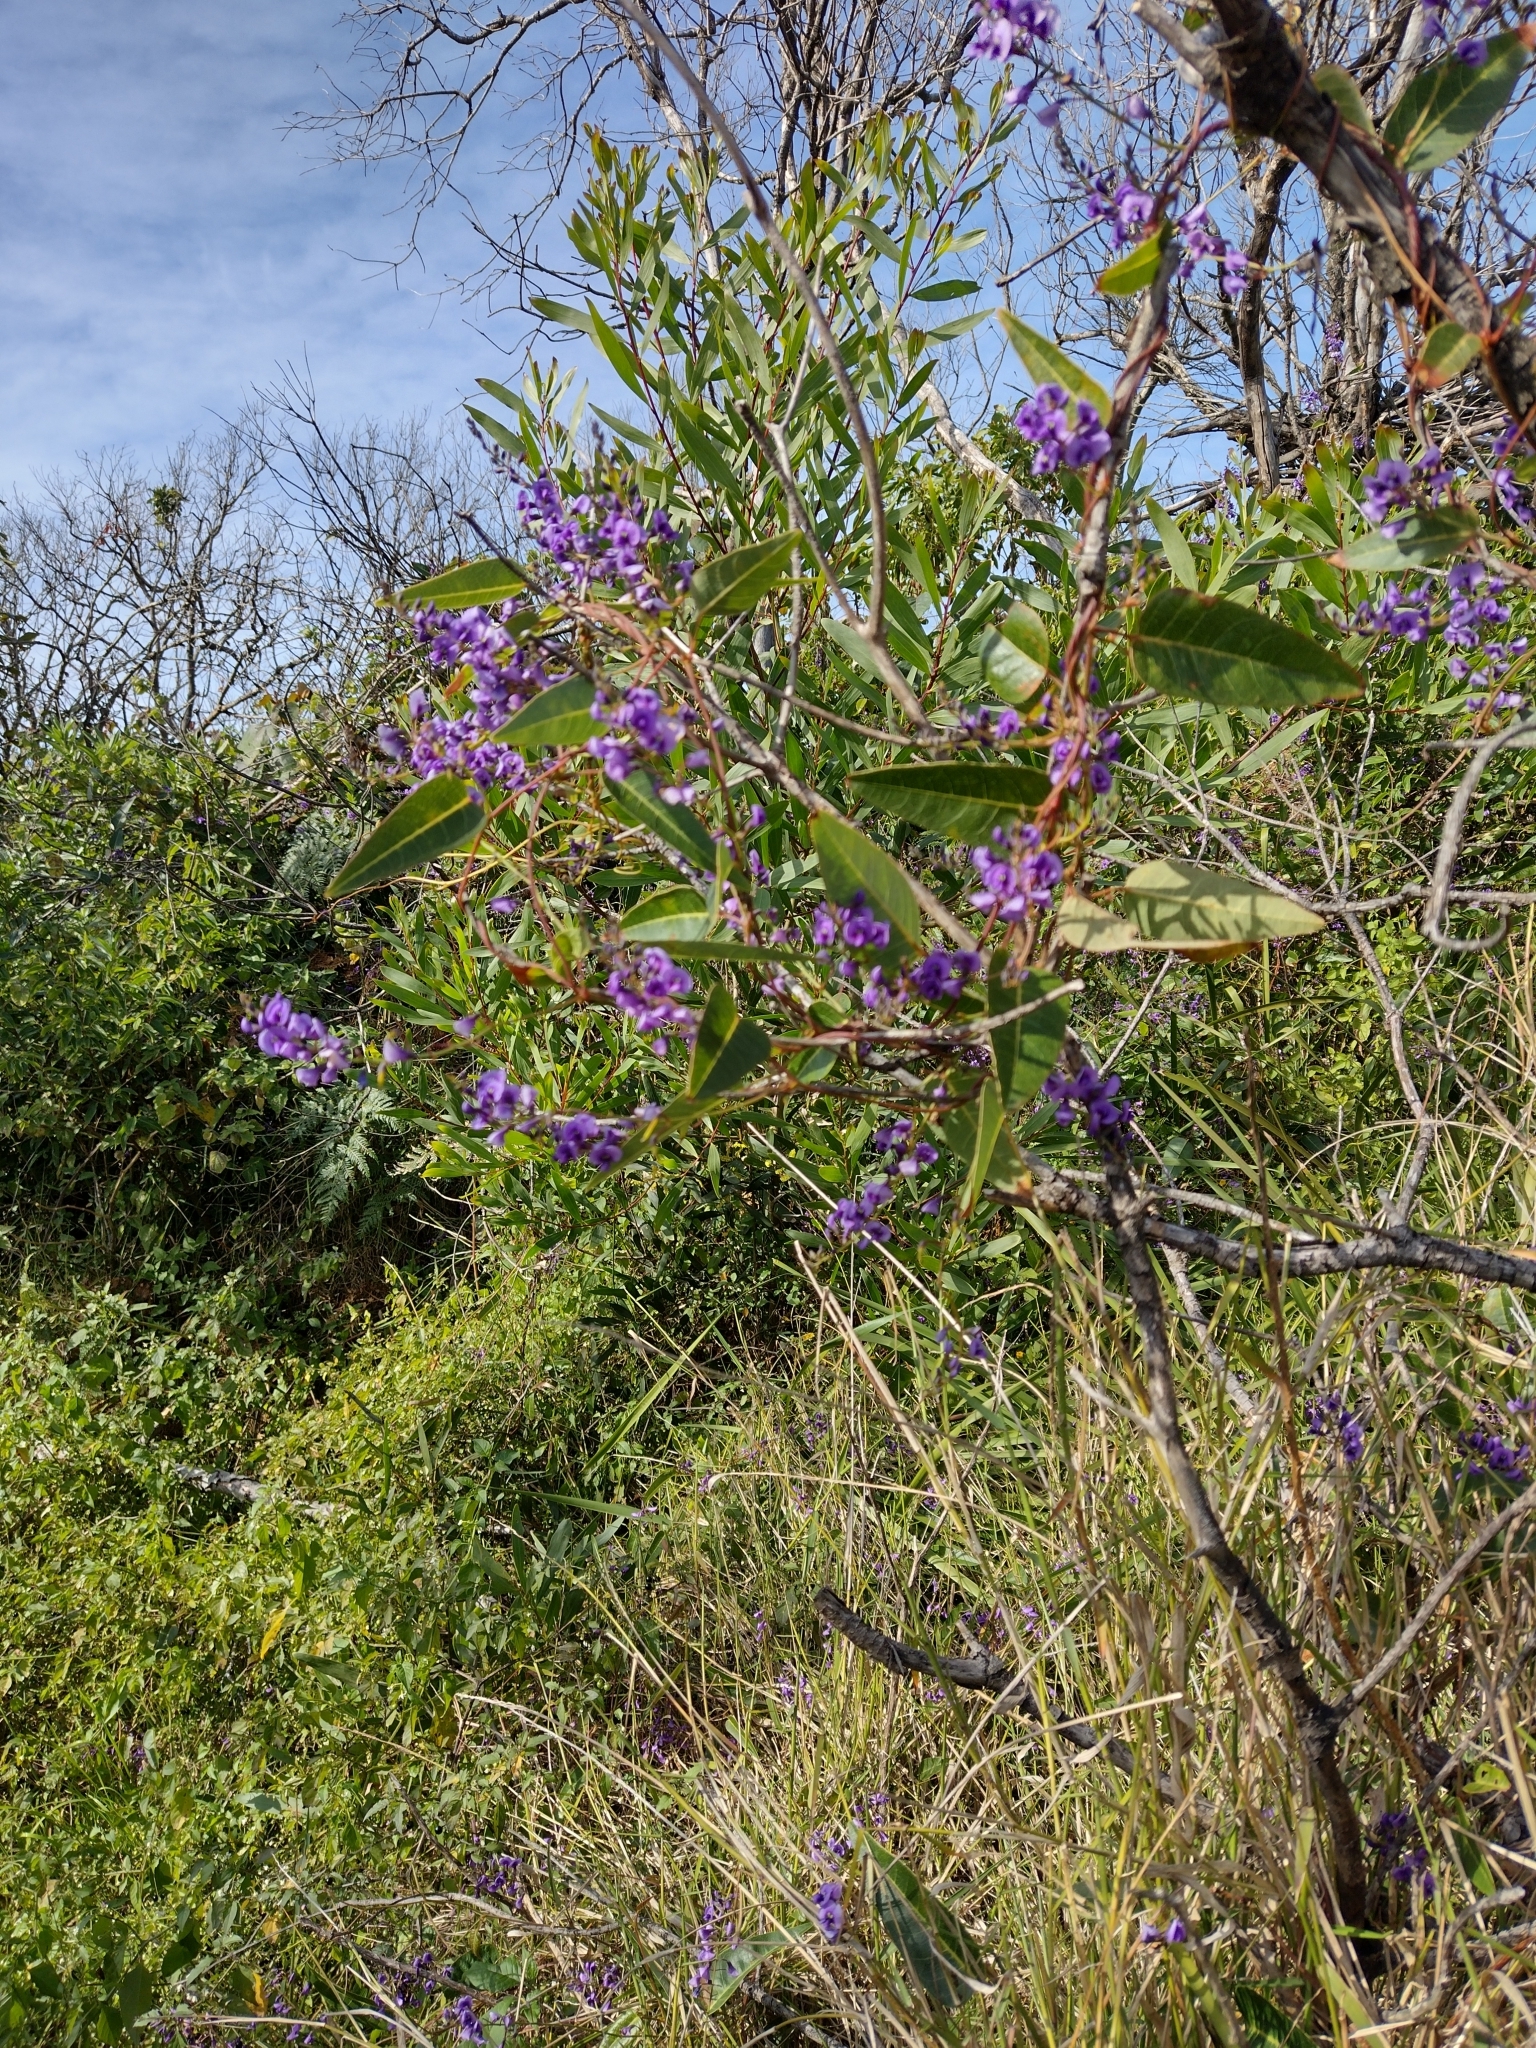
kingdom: Plantae
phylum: Tracheophyta
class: Magnoliopsida
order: Fabales
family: Fabaceae
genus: Hardenbergia
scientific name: Hardenbergia violacea
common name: Coral-pea
